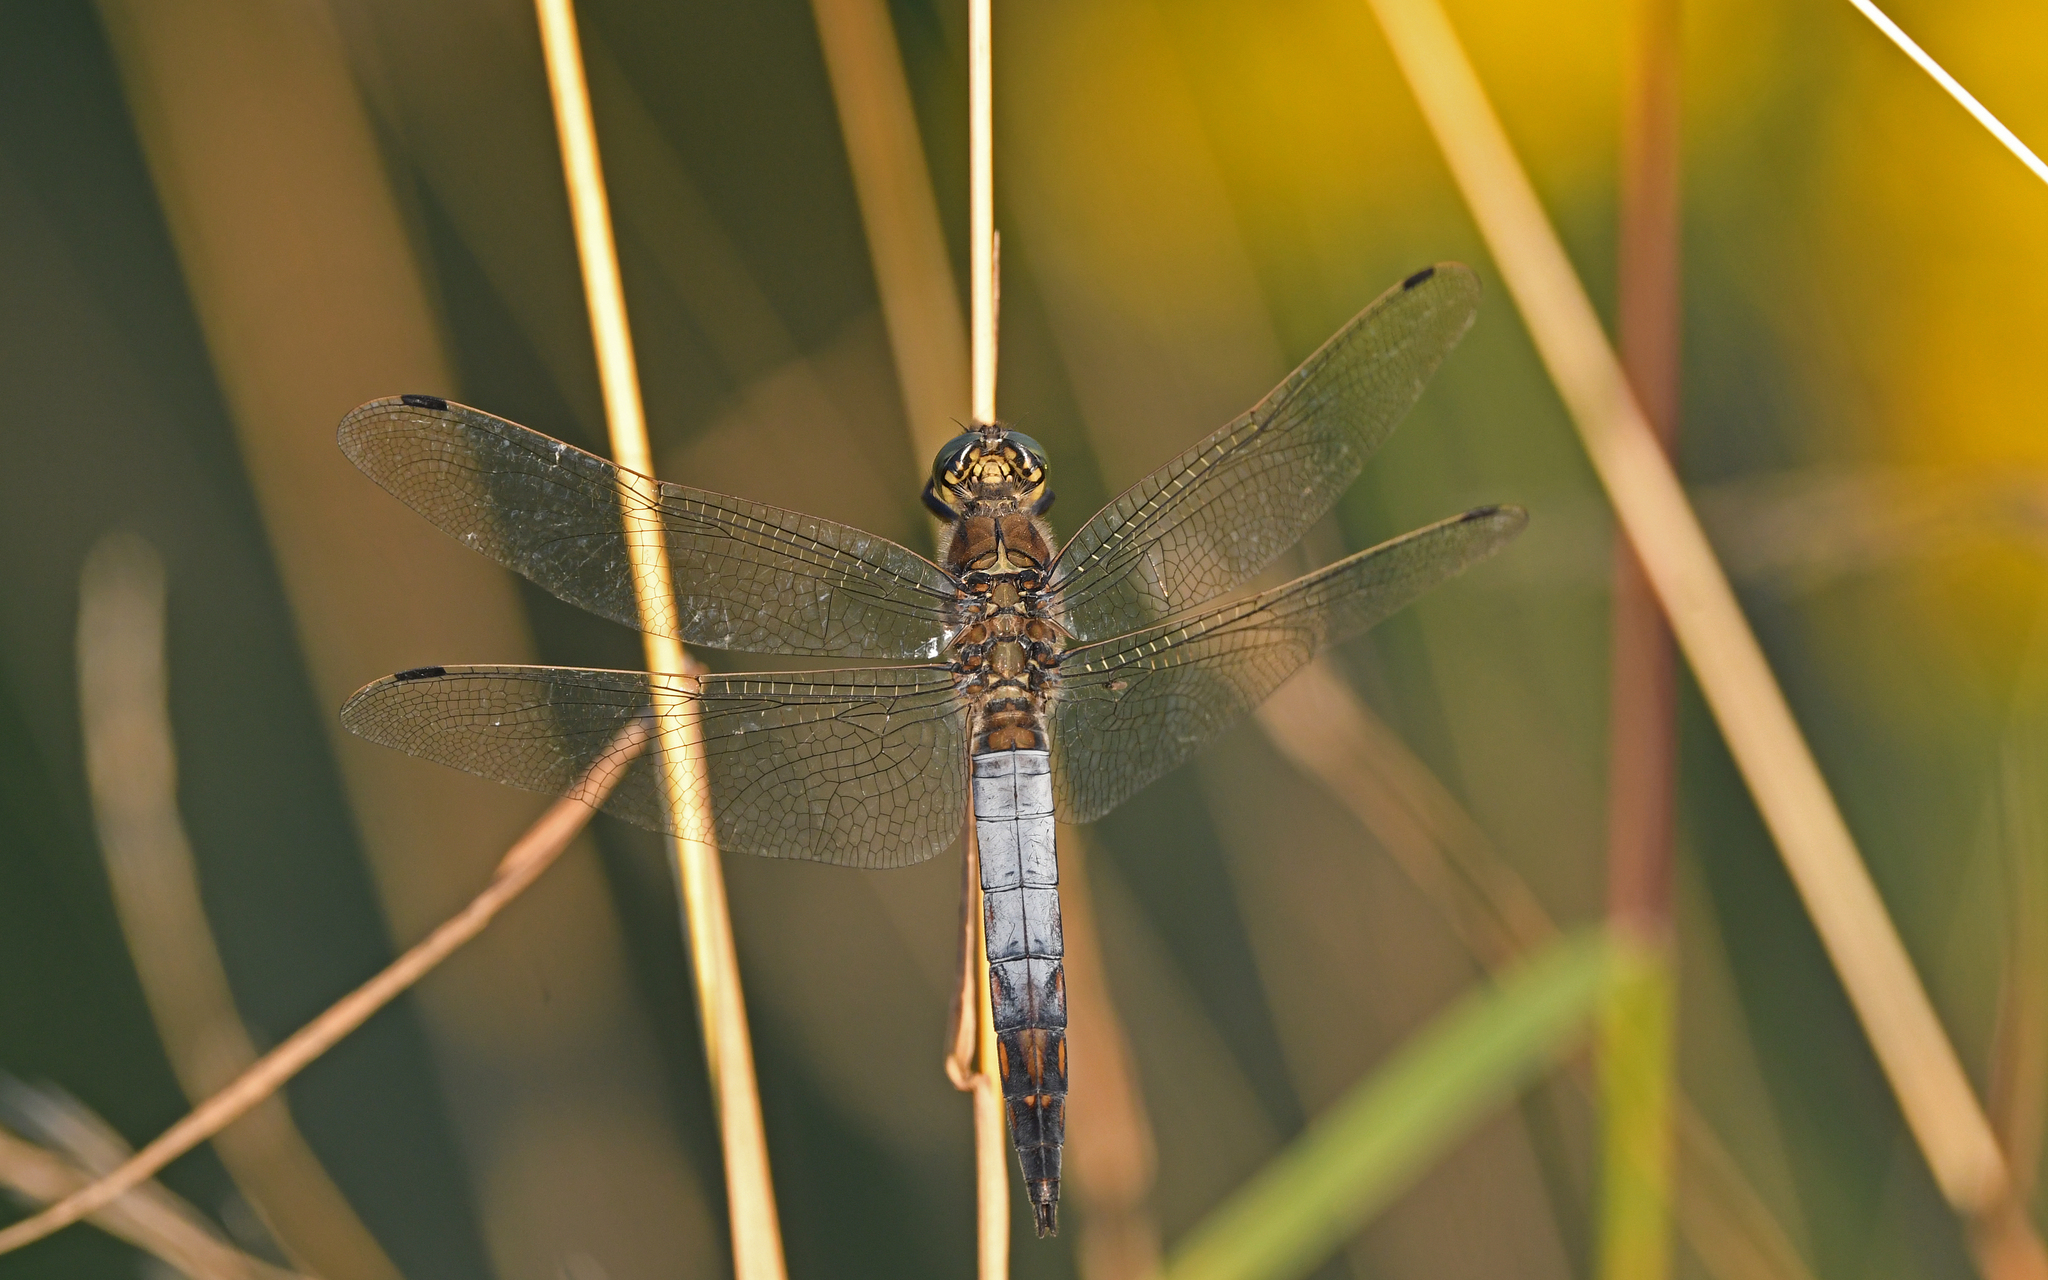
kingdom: Animalia
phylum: Arthropoda
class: Insecta
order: Odonata
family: Libellulidae
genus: Orthetrum
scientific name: Orthetrum cancellatum
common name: Black-tailed skimmer
